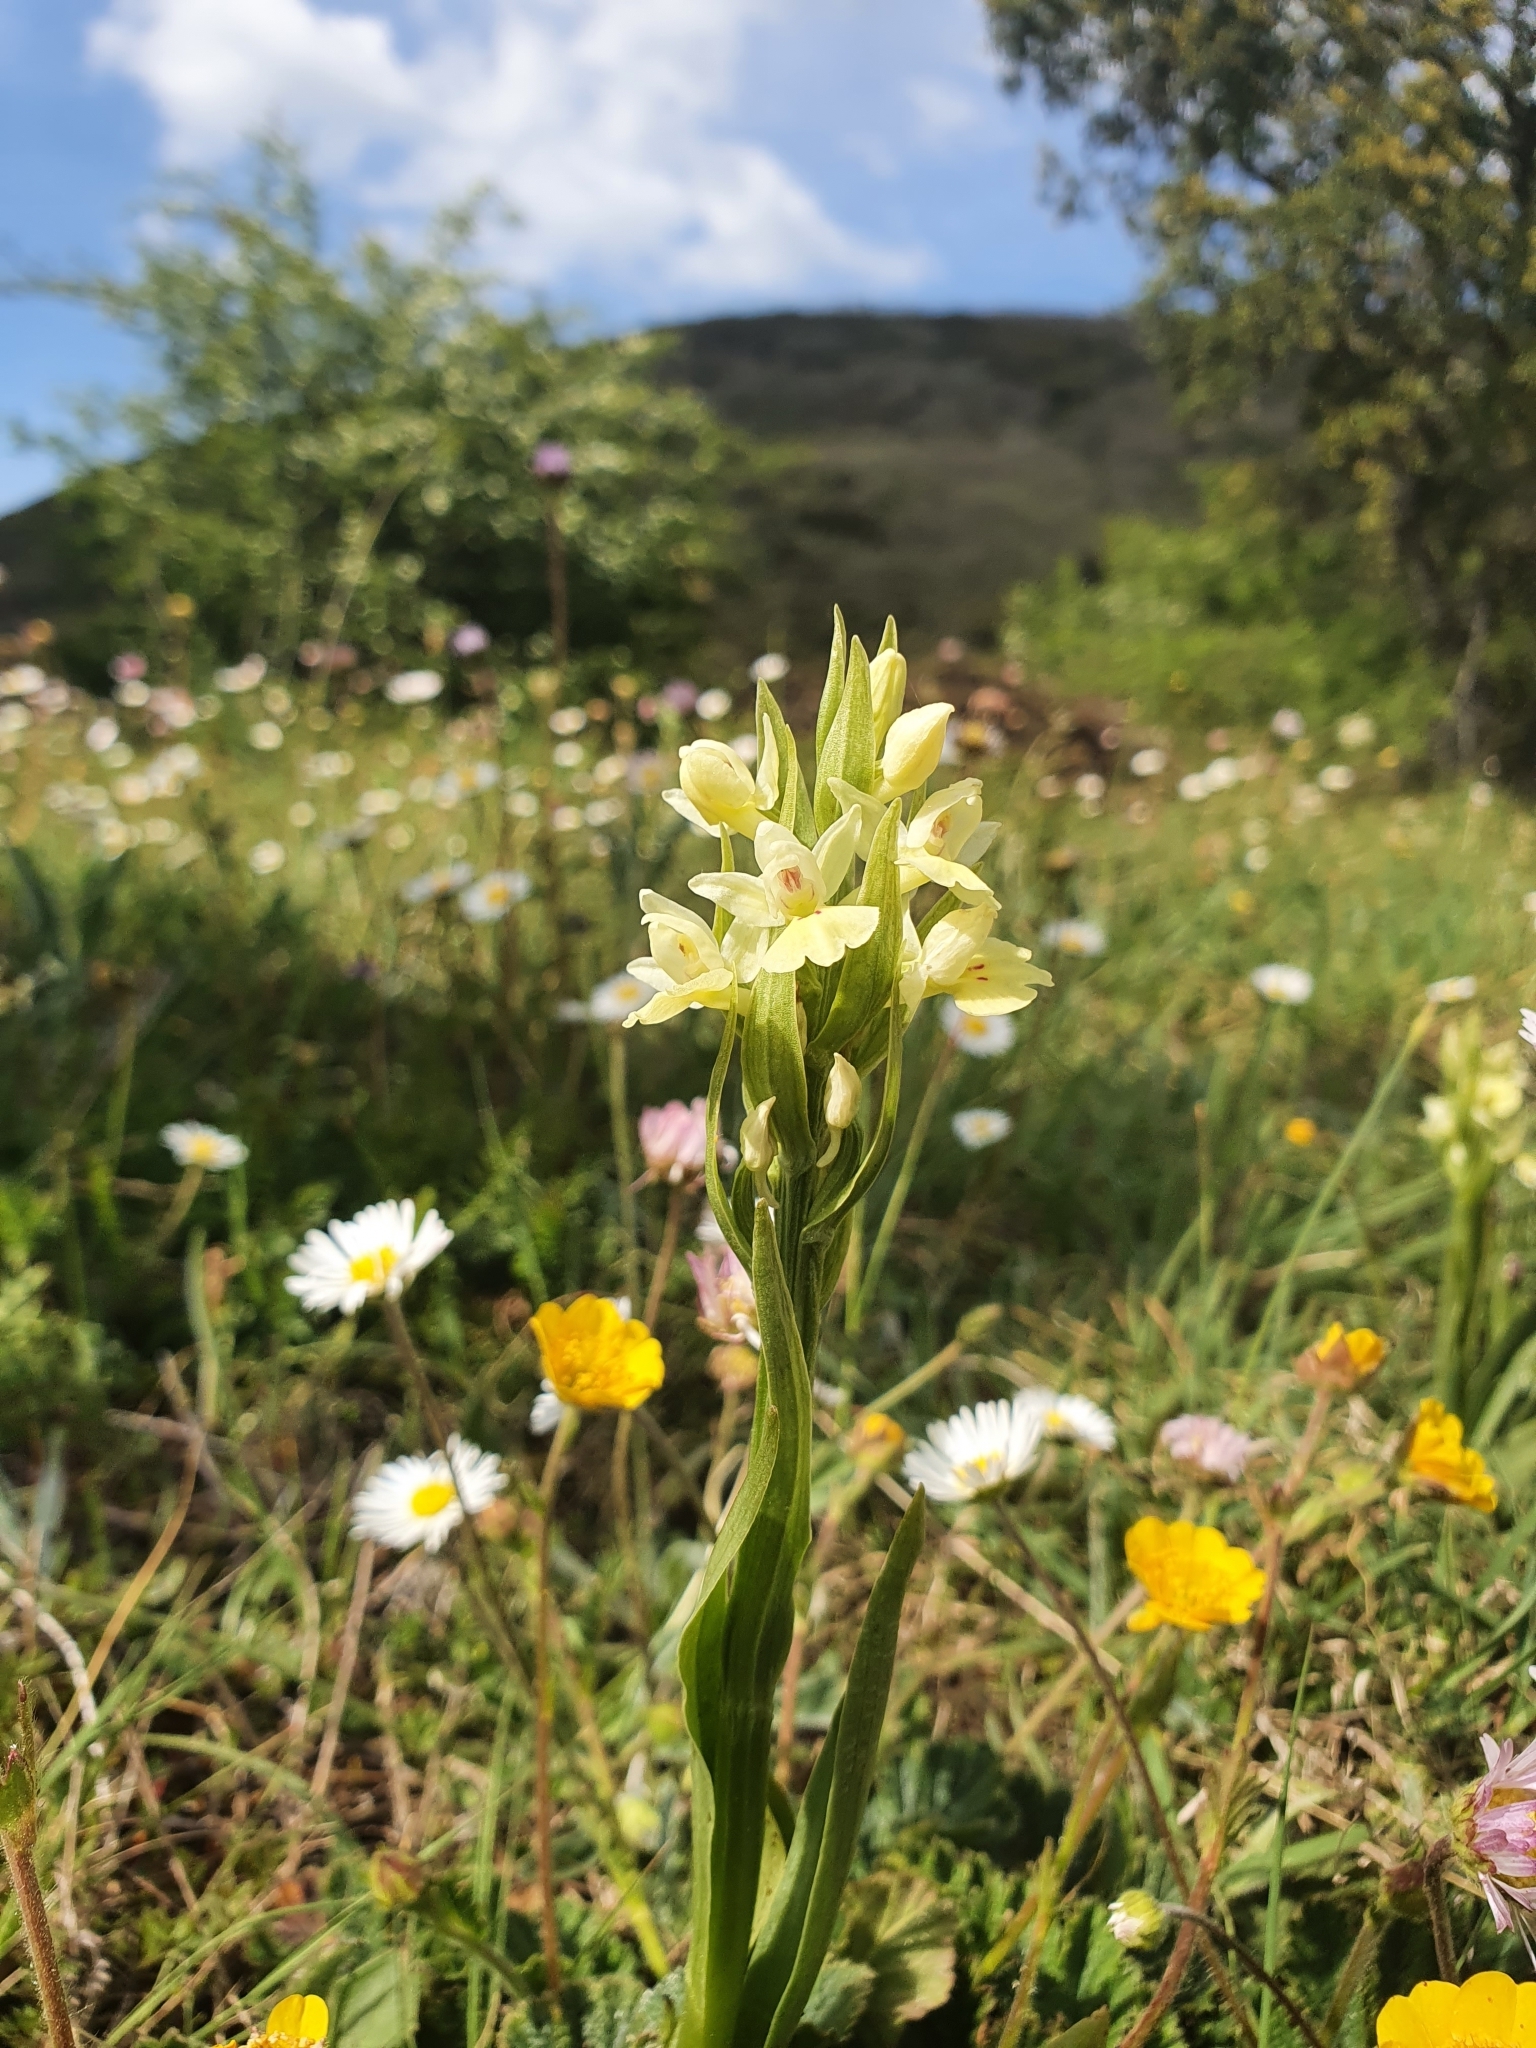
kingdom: Plantae
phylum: Tracheophyta
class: Liliopsida
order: Asparagales
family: Orchidaceae
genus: Dactylorhiza
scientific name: Dactylorhiza insularis
